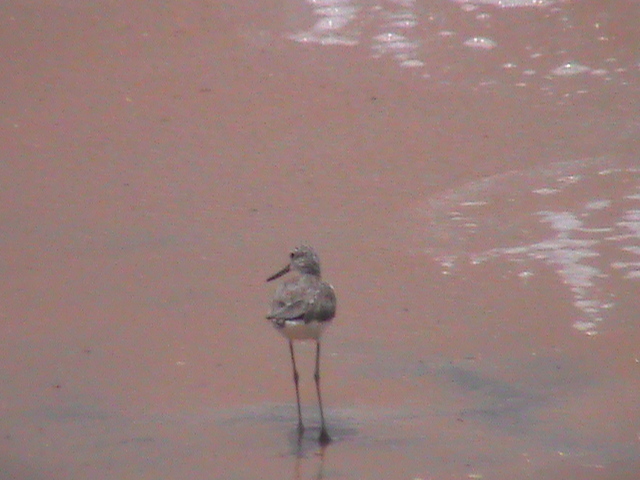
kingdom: Animalia
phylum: Chordata
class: Aves
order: Charadriiformes
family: Scolopacidae
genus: Tringa
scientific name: Tringa nebularia
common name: Common greenshank
